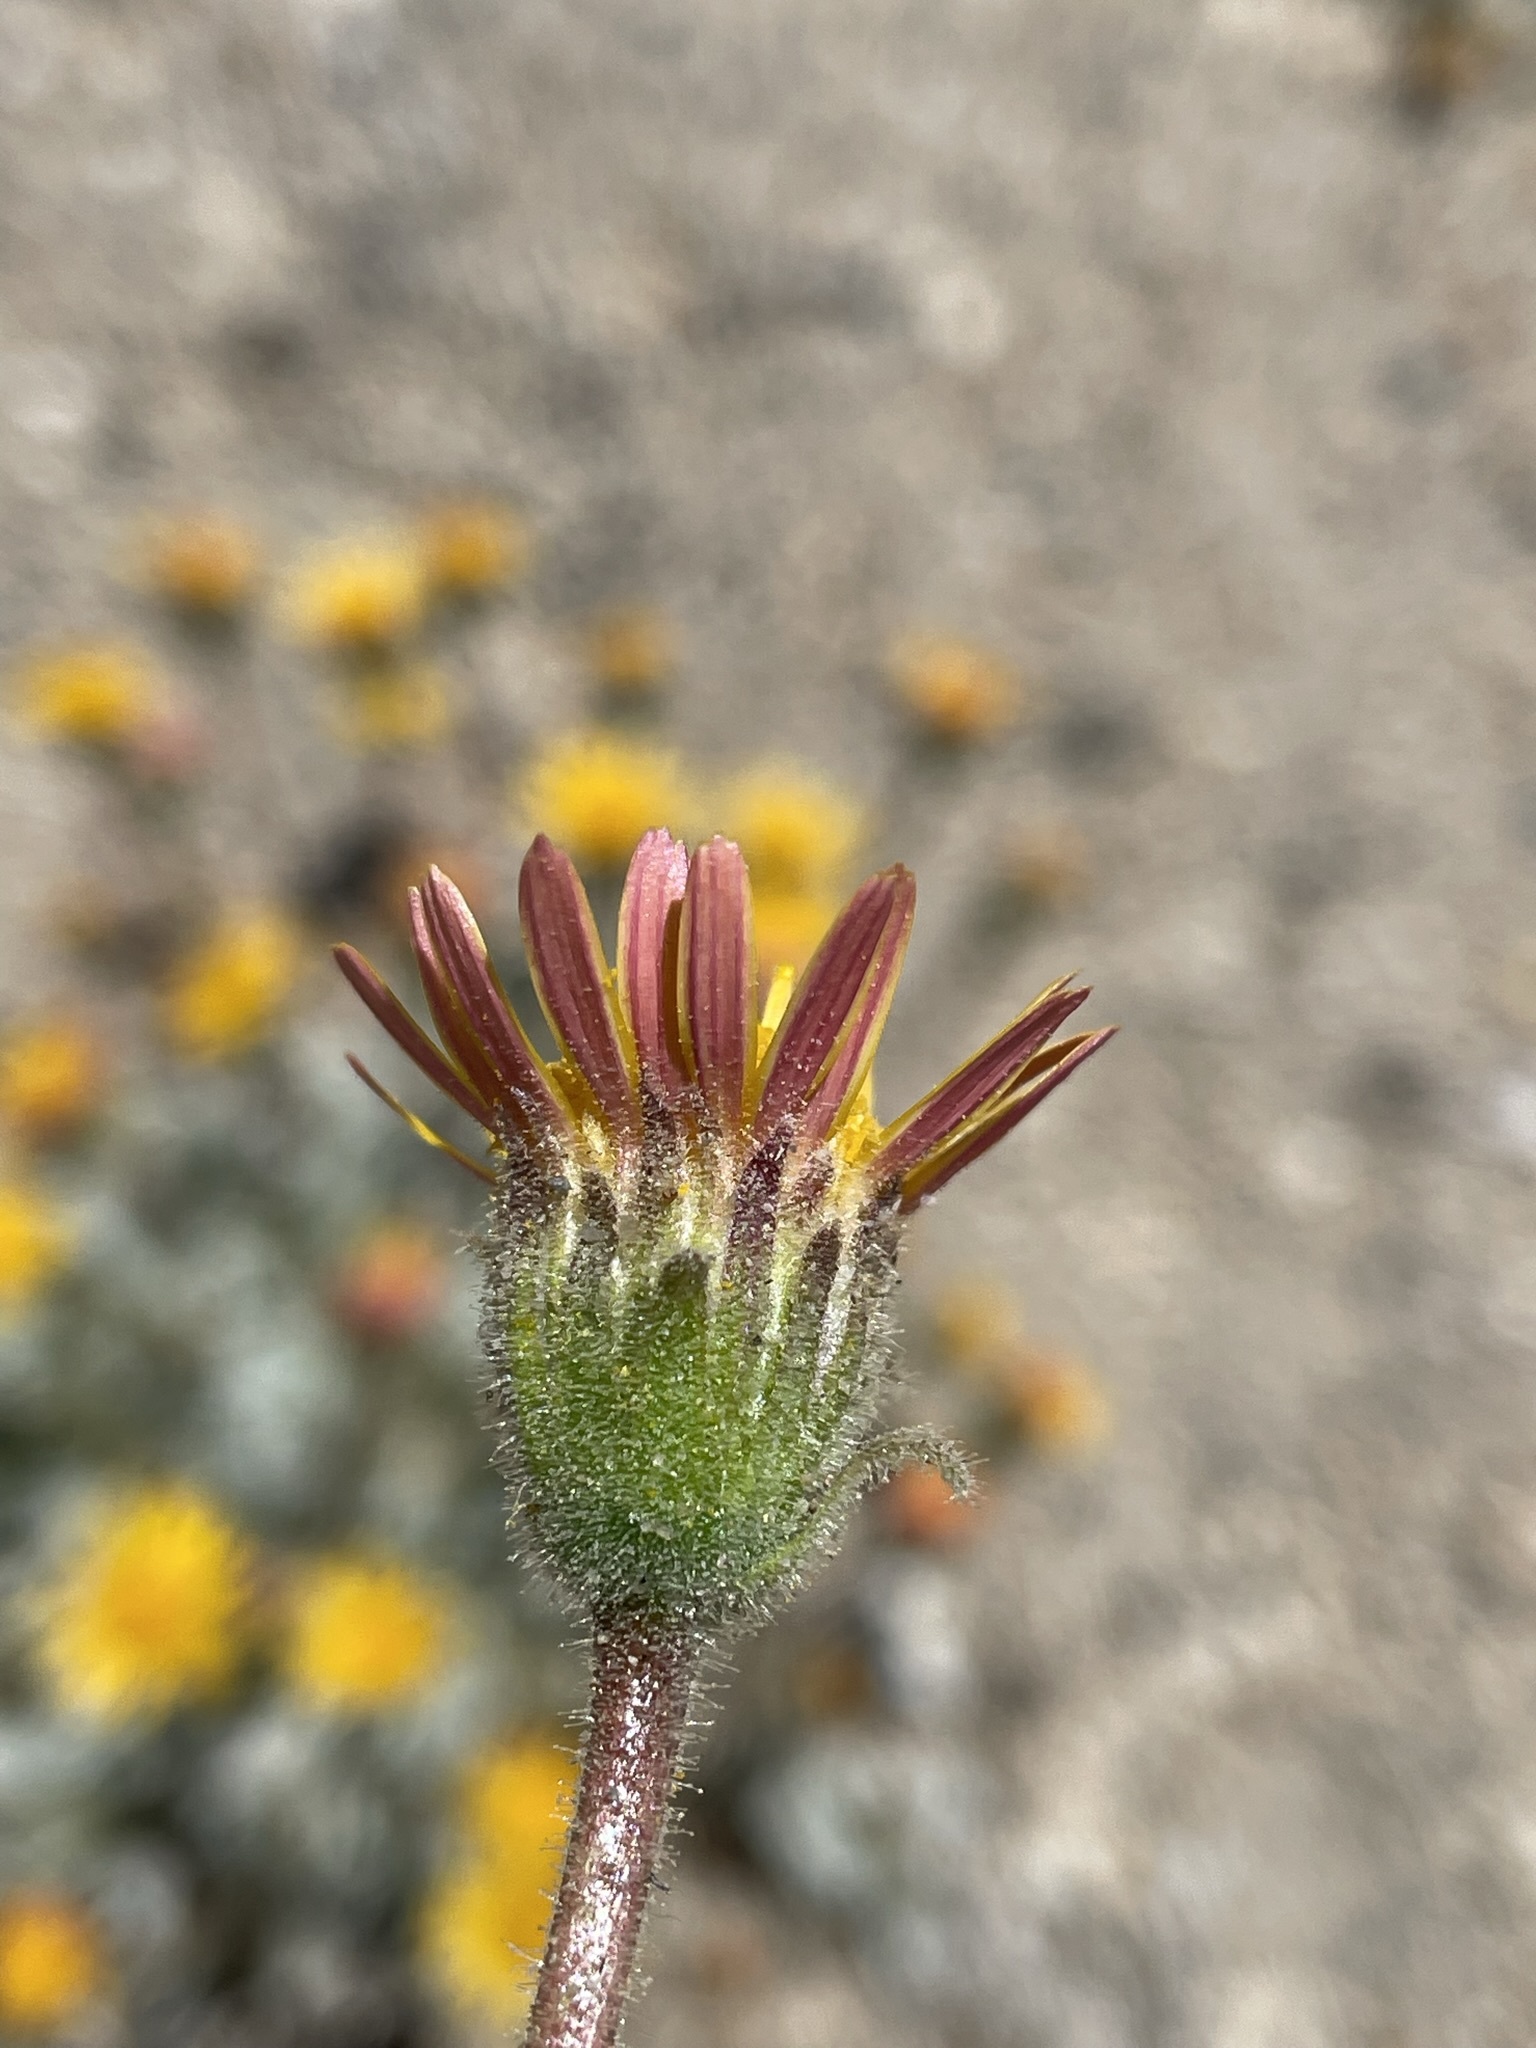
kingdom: Plantae
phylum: Tracheophyta
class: Magnoliopsida
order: Asterales
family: Asteraceae
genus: Hulsea
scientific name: Hulsea vestita
